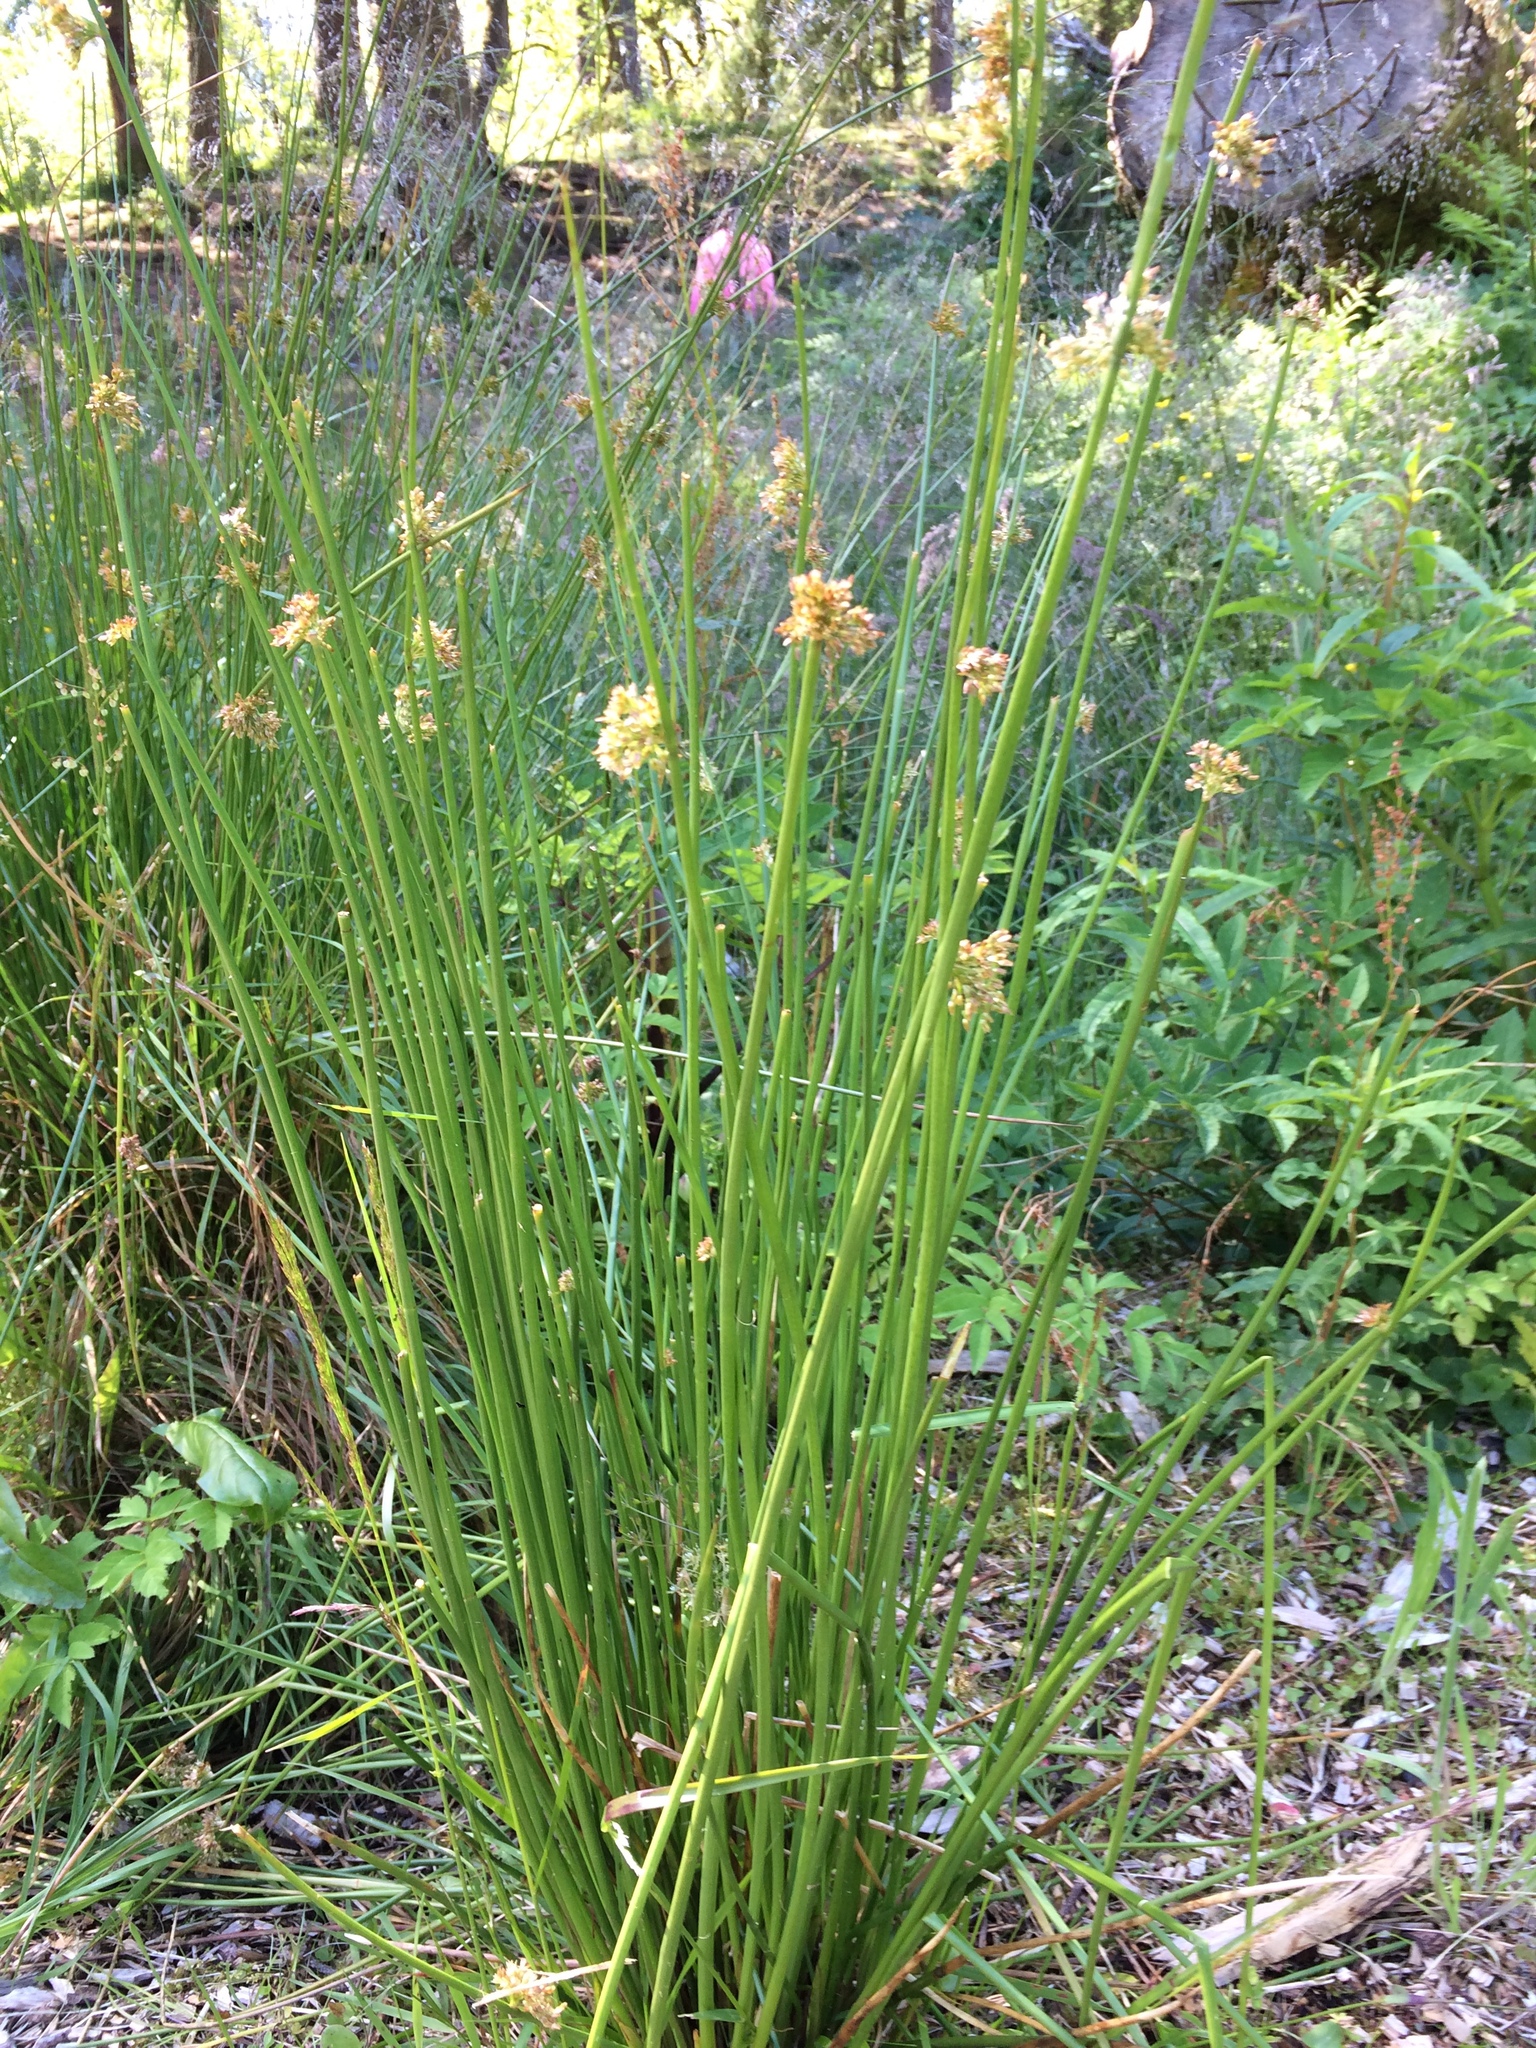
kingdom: Plantae
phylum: Tracheophyta
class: Liliopsida
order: Poales
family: Juncaceae
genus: Juncus
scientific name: Juncus effusus
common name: Soft rush
